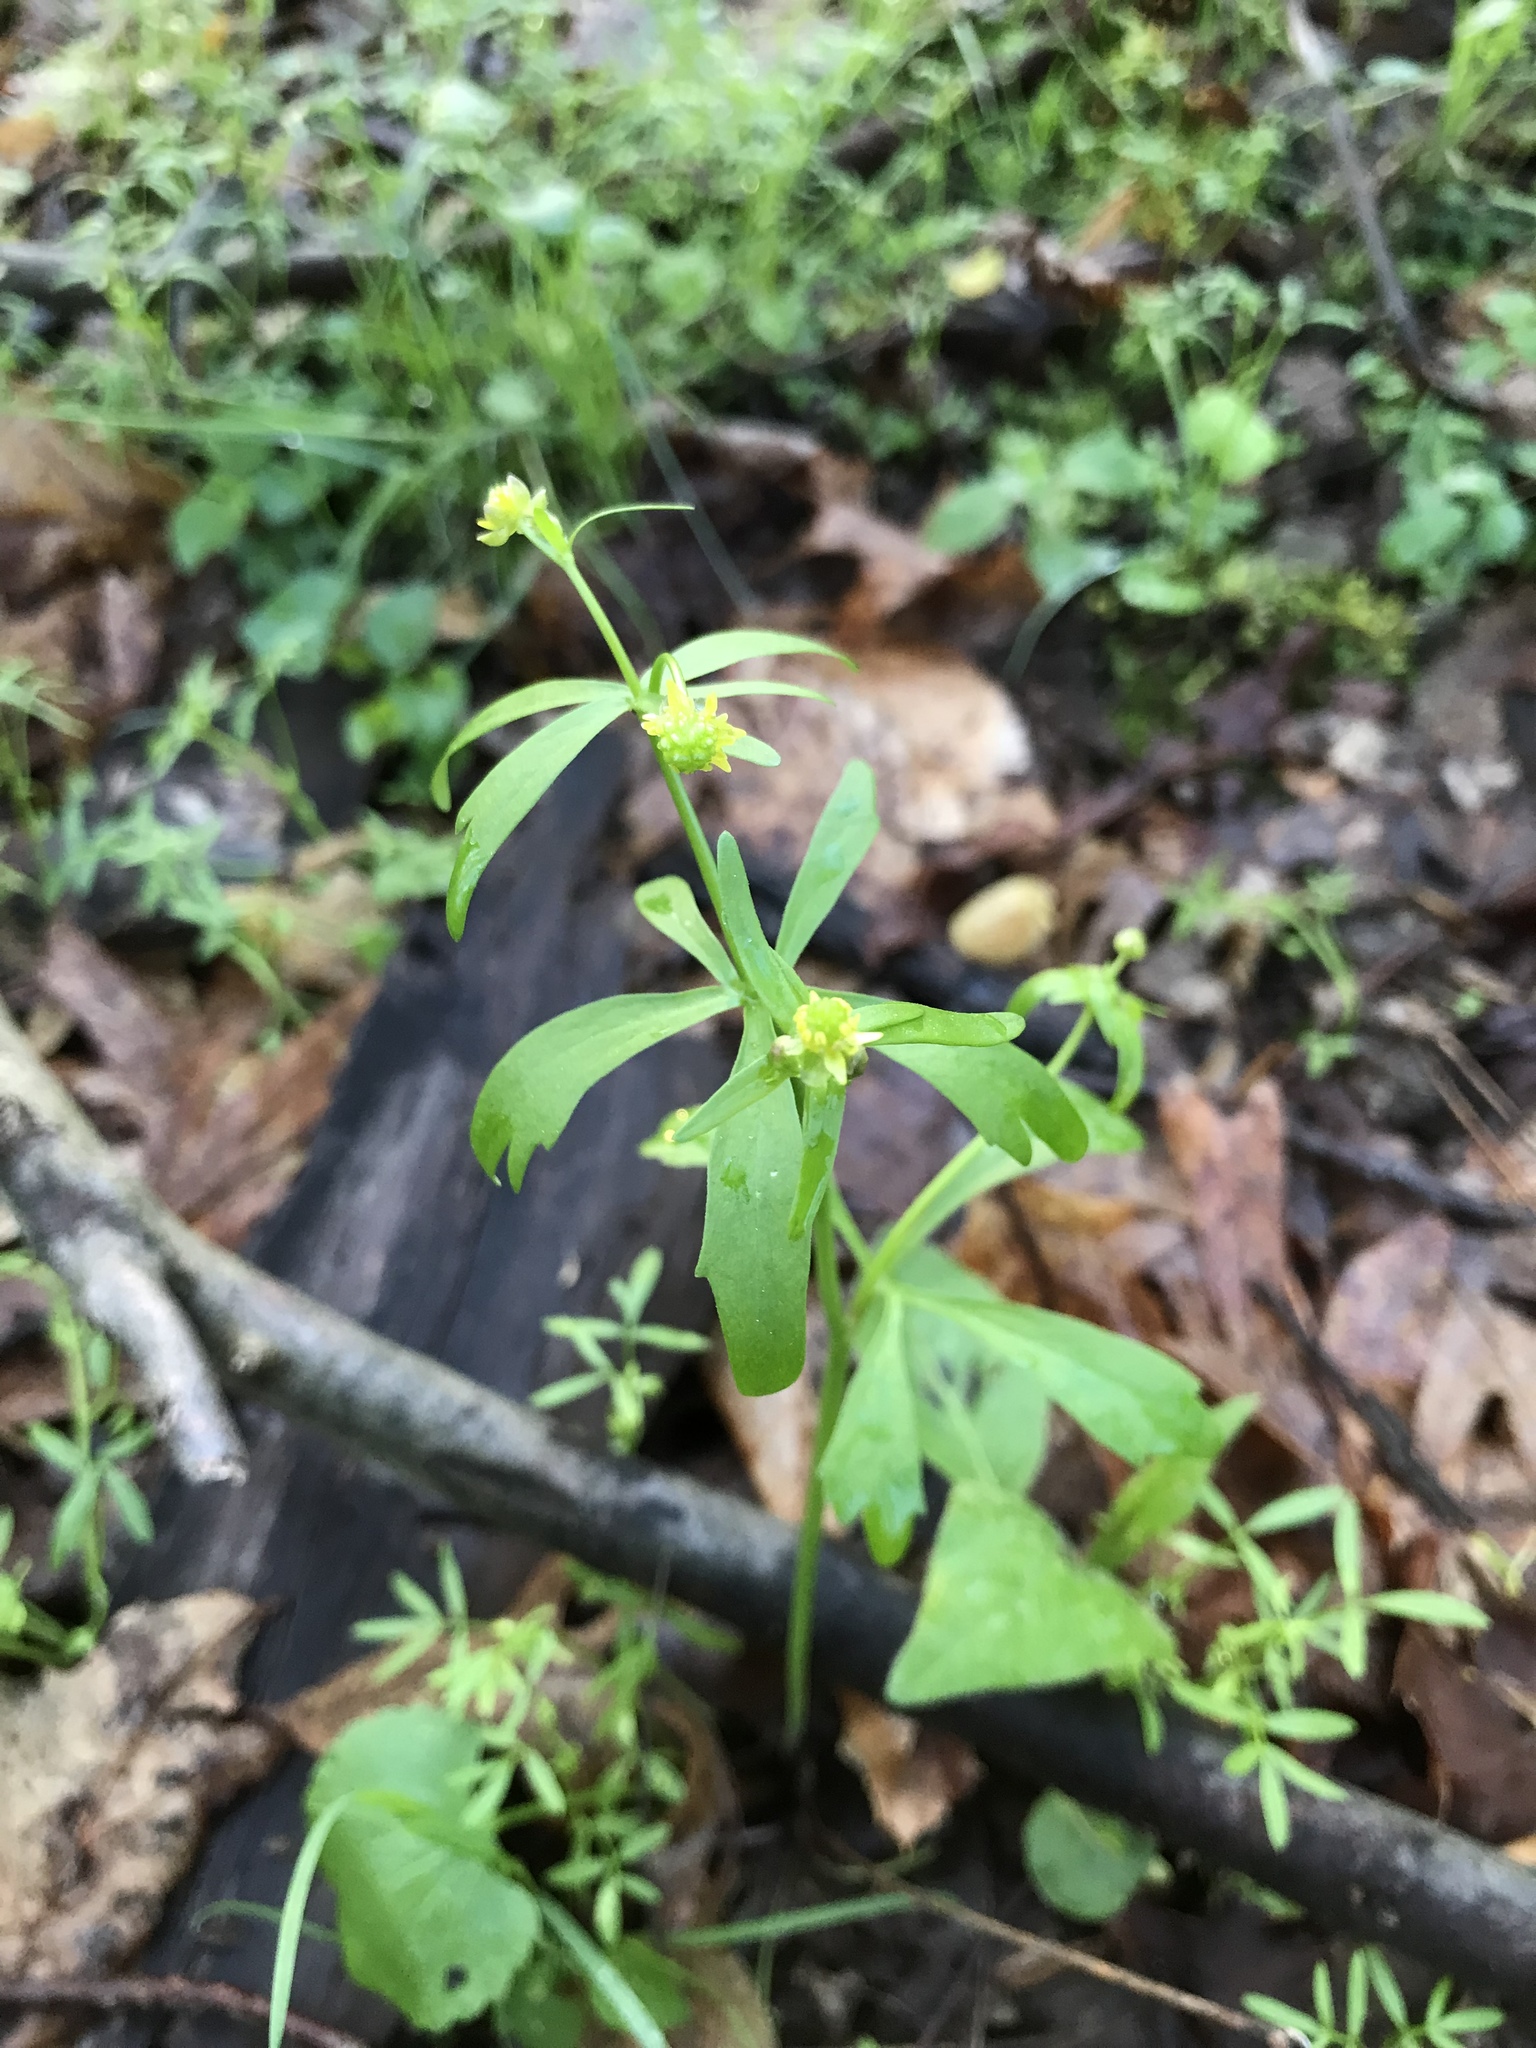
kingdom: Plantae
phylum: Tracheophyta
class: Magnoliopsida
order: Ranunculales
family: Ranunculaceae
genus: Ranunculus
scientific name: Ranunculus abortivus
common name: Early wood buttercup
